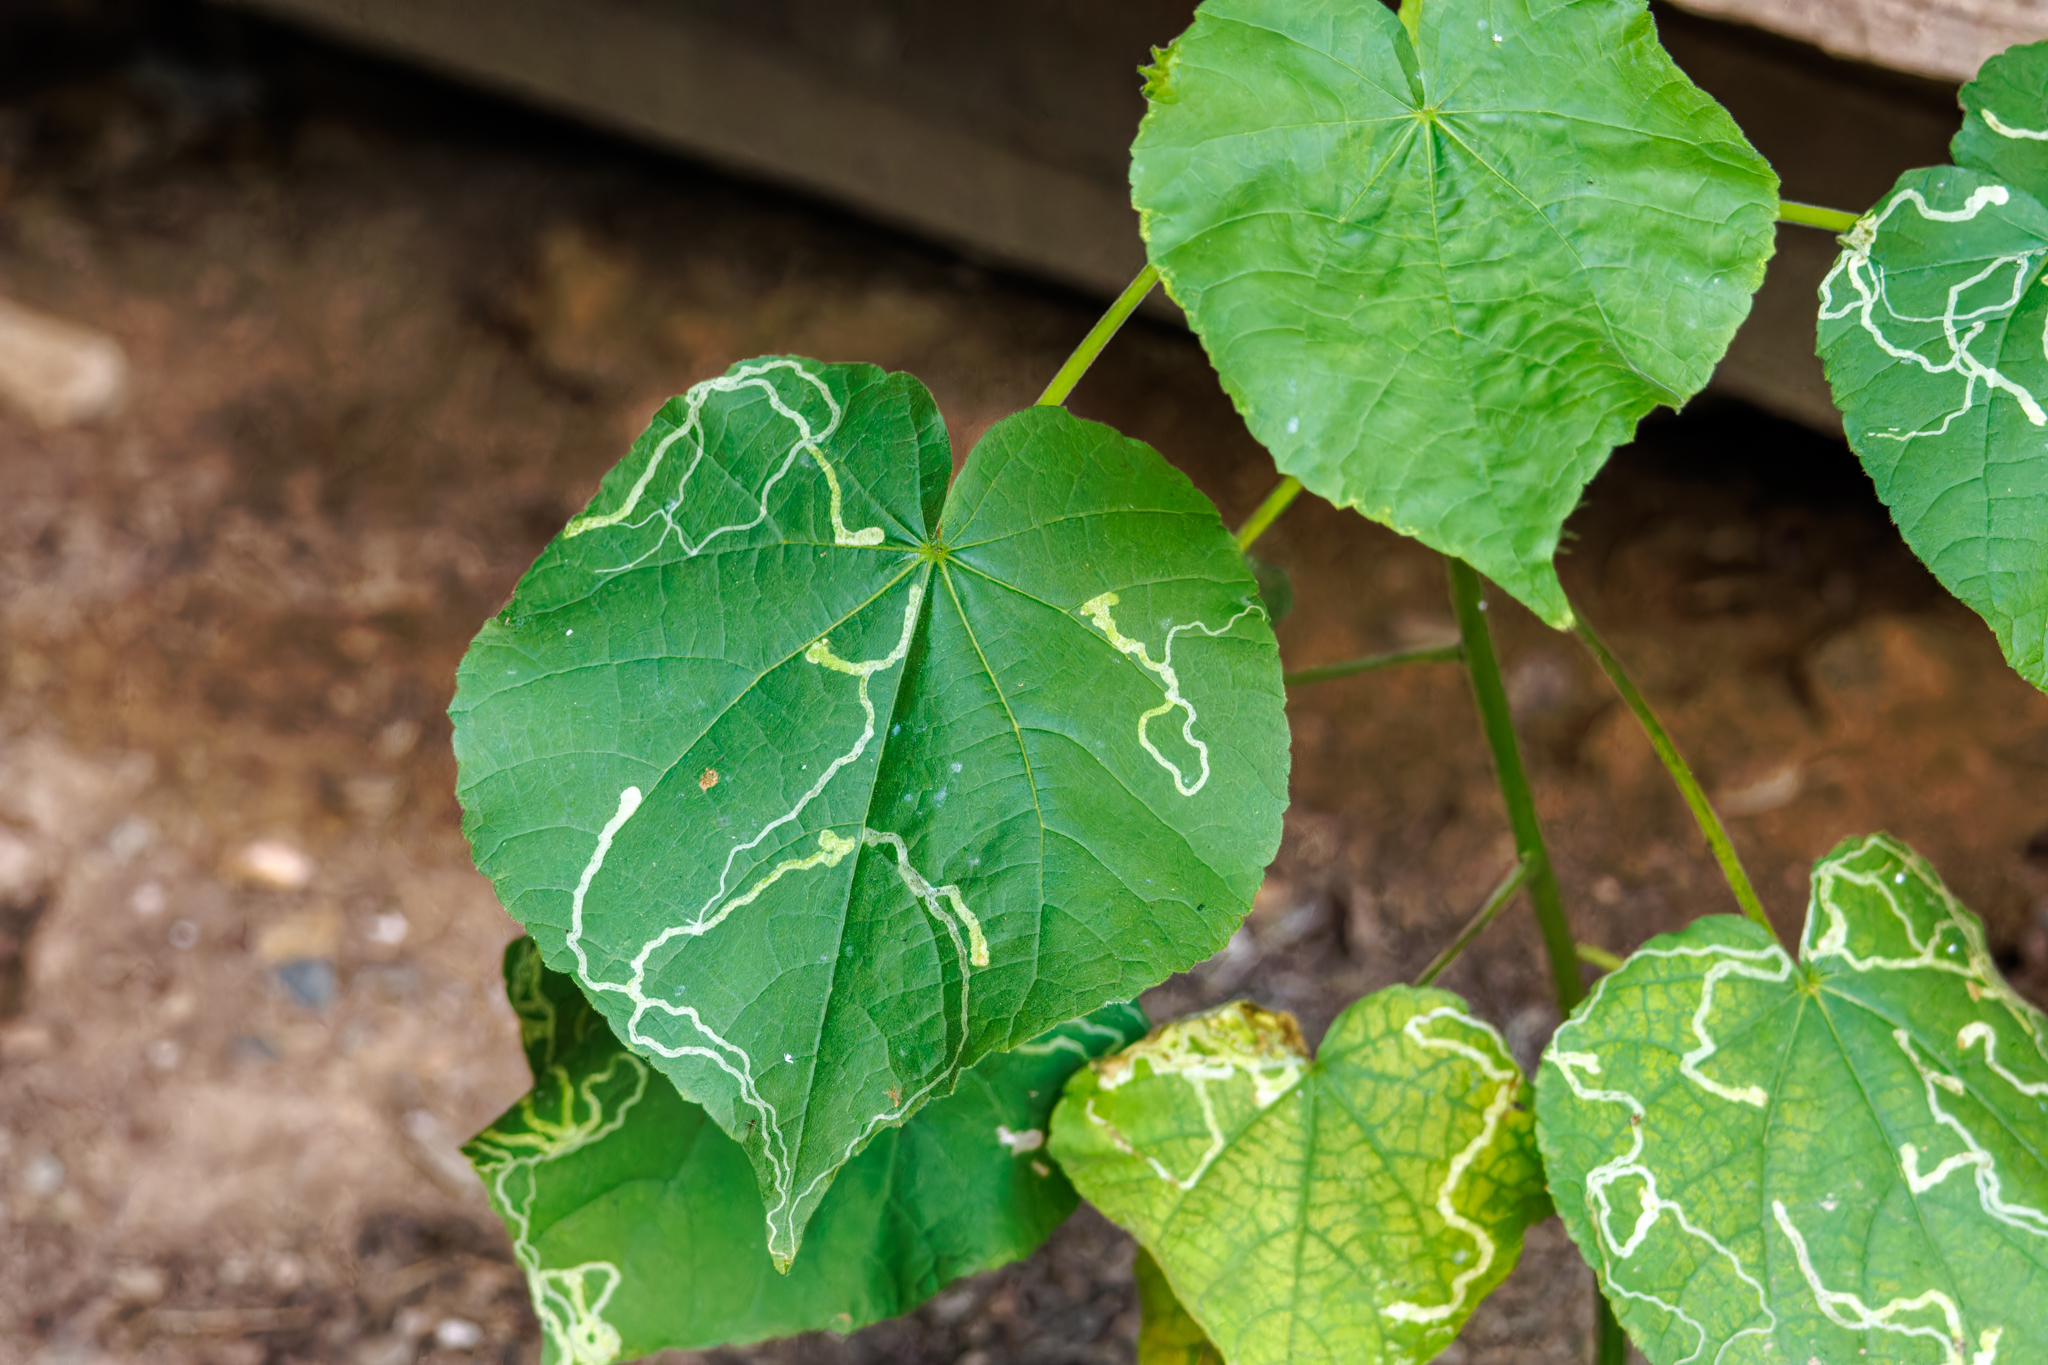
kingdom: Animalia
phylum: Arthropoda
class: Insecta
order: Diptera
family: Agromyzidae
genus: Calycomyza
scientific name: Calycomyza malvae
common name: Mallow leaf miner
